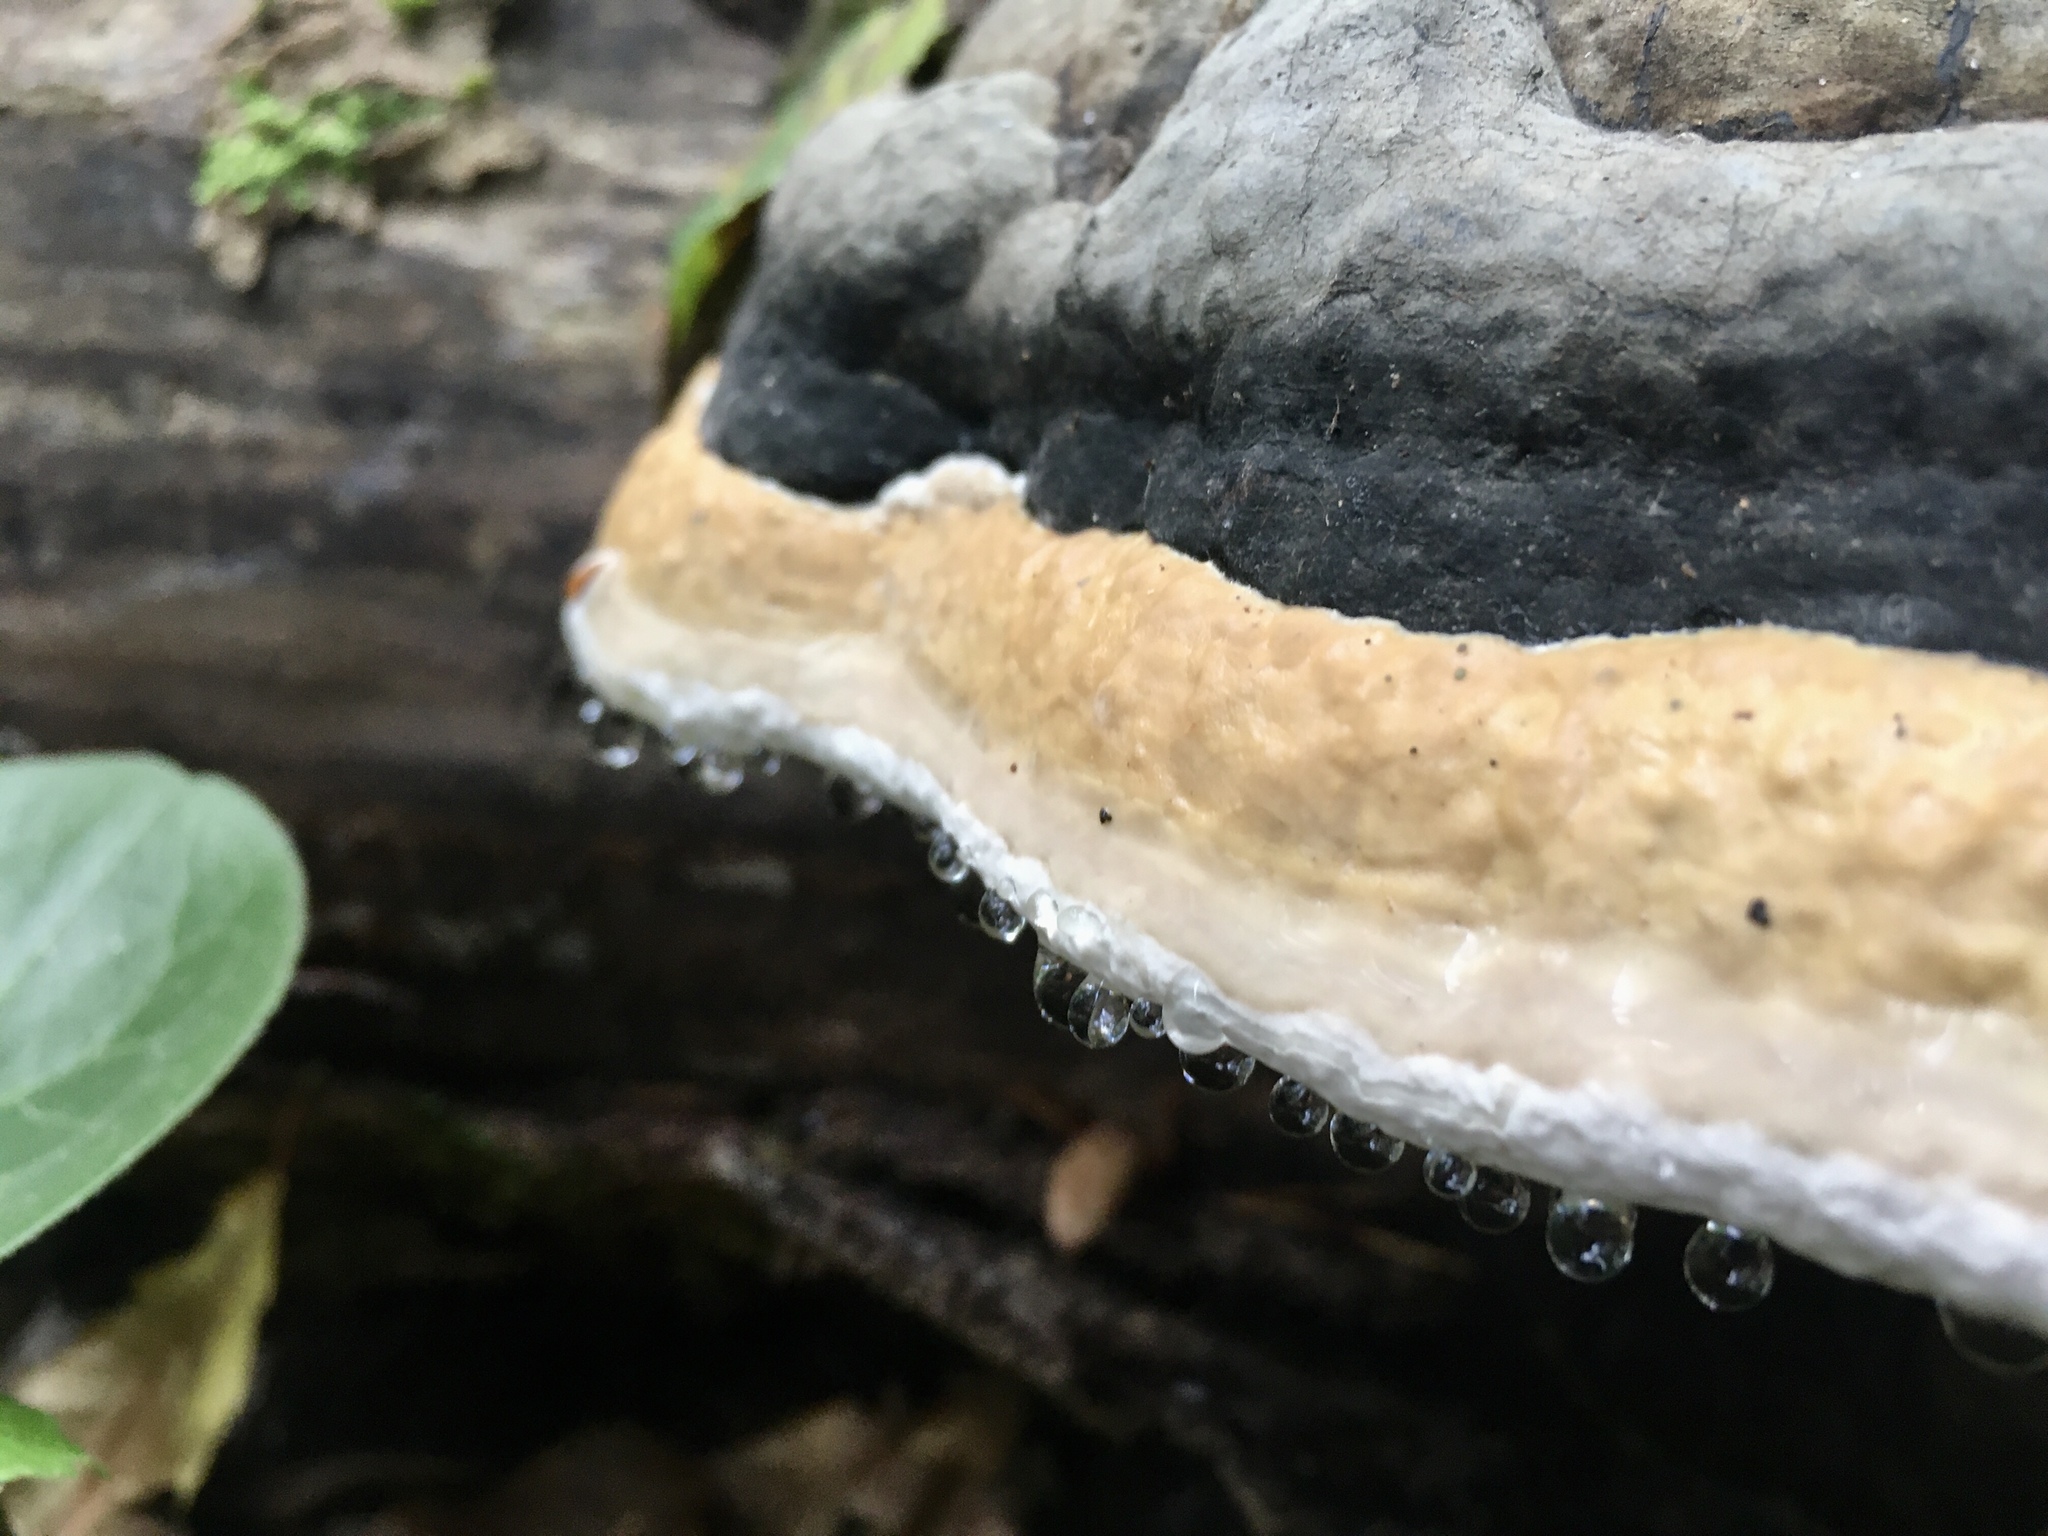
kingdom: Fungi
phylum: Basidiomycota
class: Agaricomycetes
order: Polyporales
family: Fomitopsidaceae
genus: Fomitopsis
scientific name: Fomitopsis pinicola
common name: Red-belted bracket
